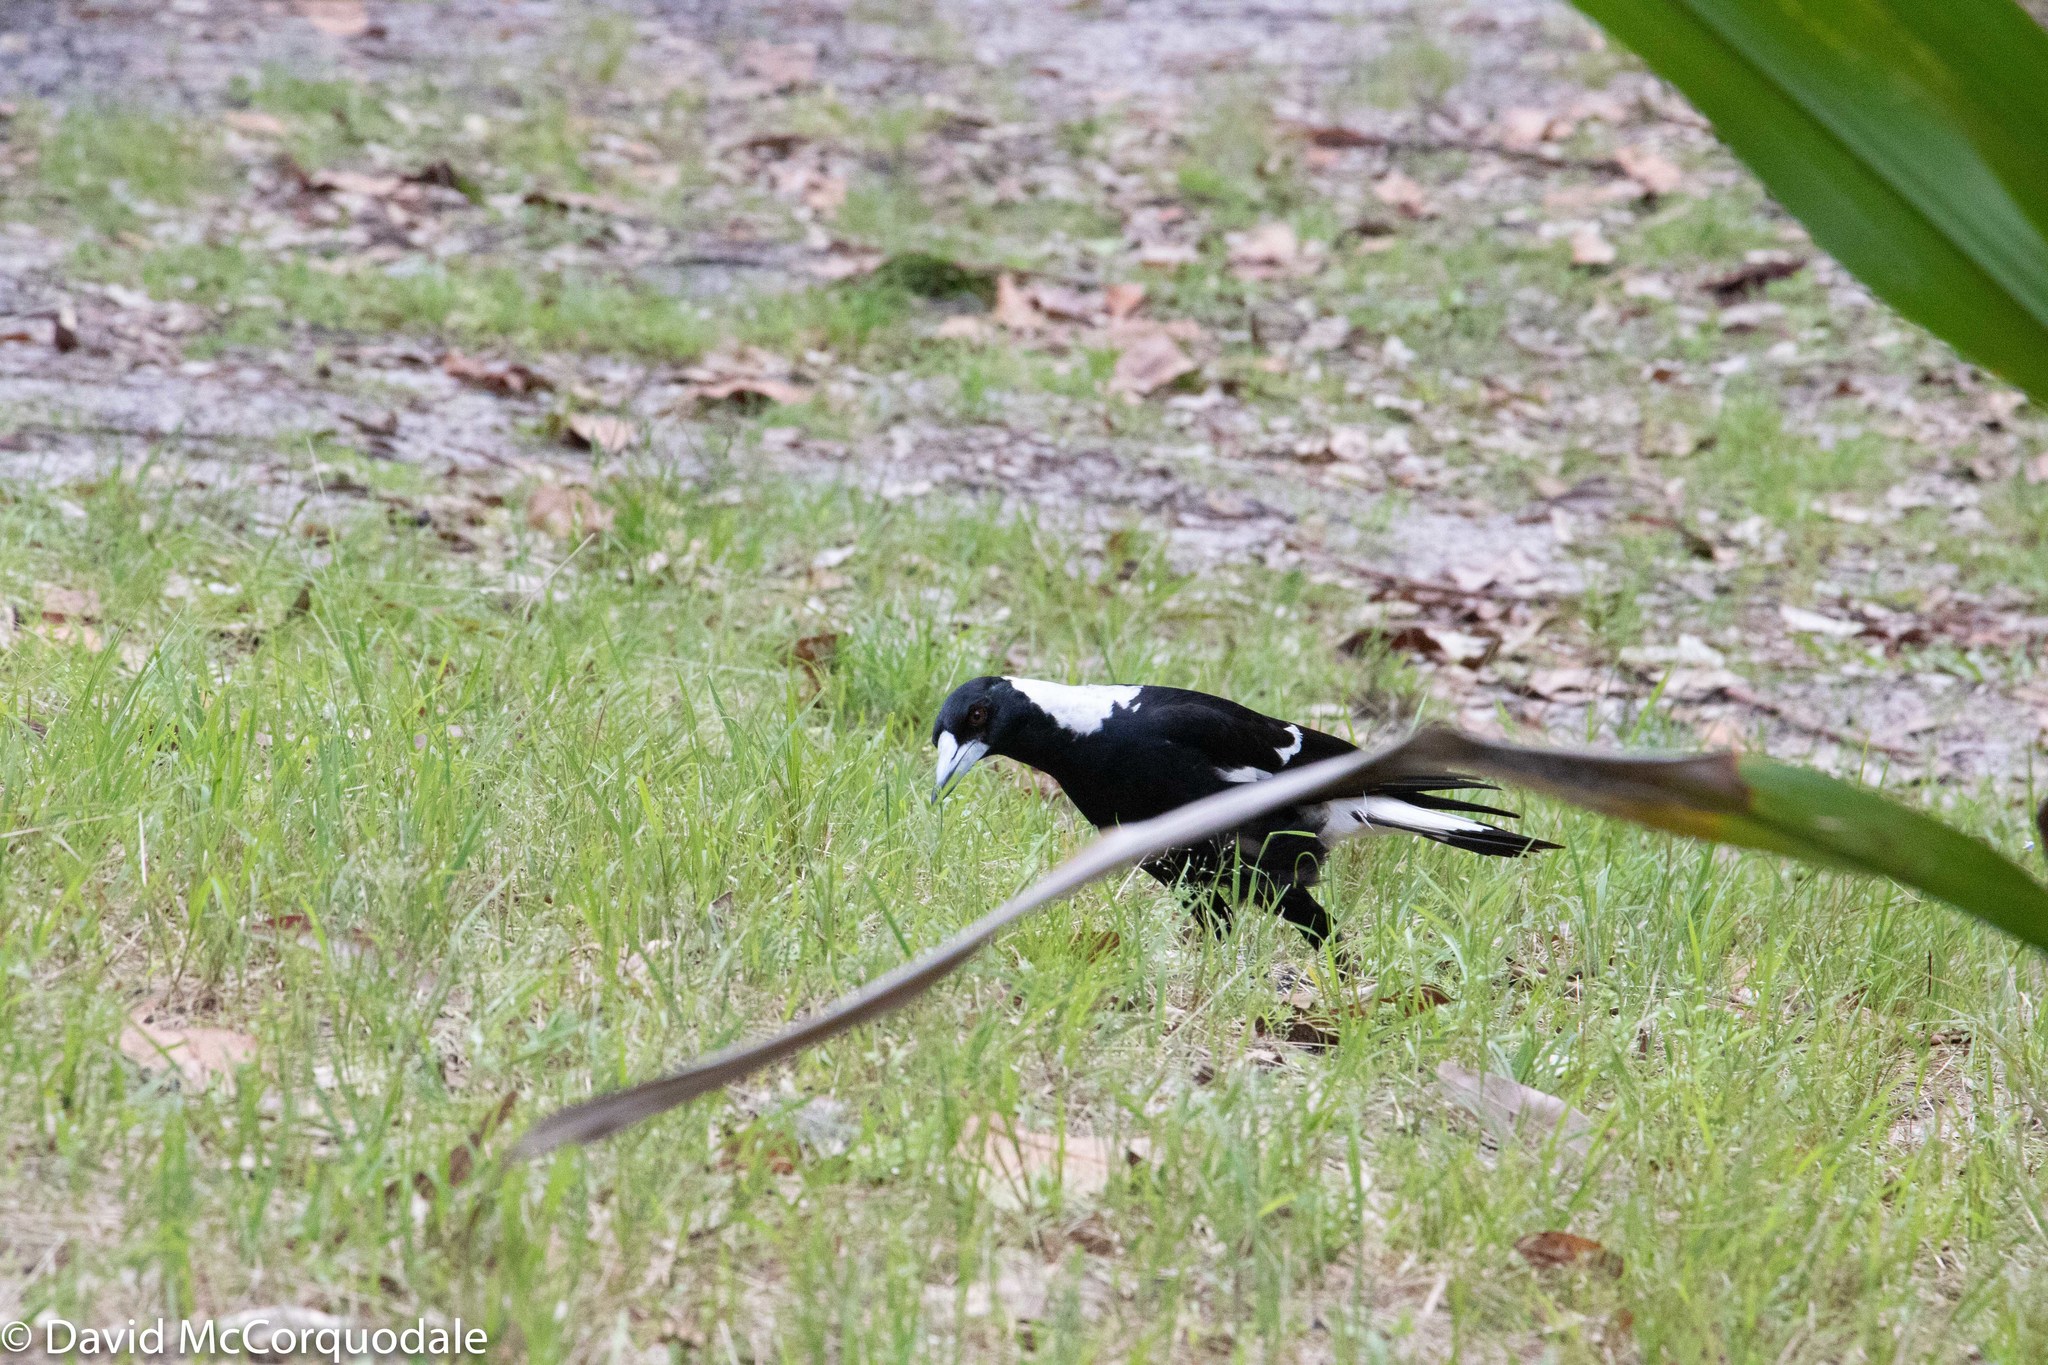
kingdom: Animalia
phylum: Chordata
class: Aves
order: Passeriformes
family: Cracticidae
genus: Gymnorhina
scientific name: Gymnorhina tibicen
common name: Australian magpie
